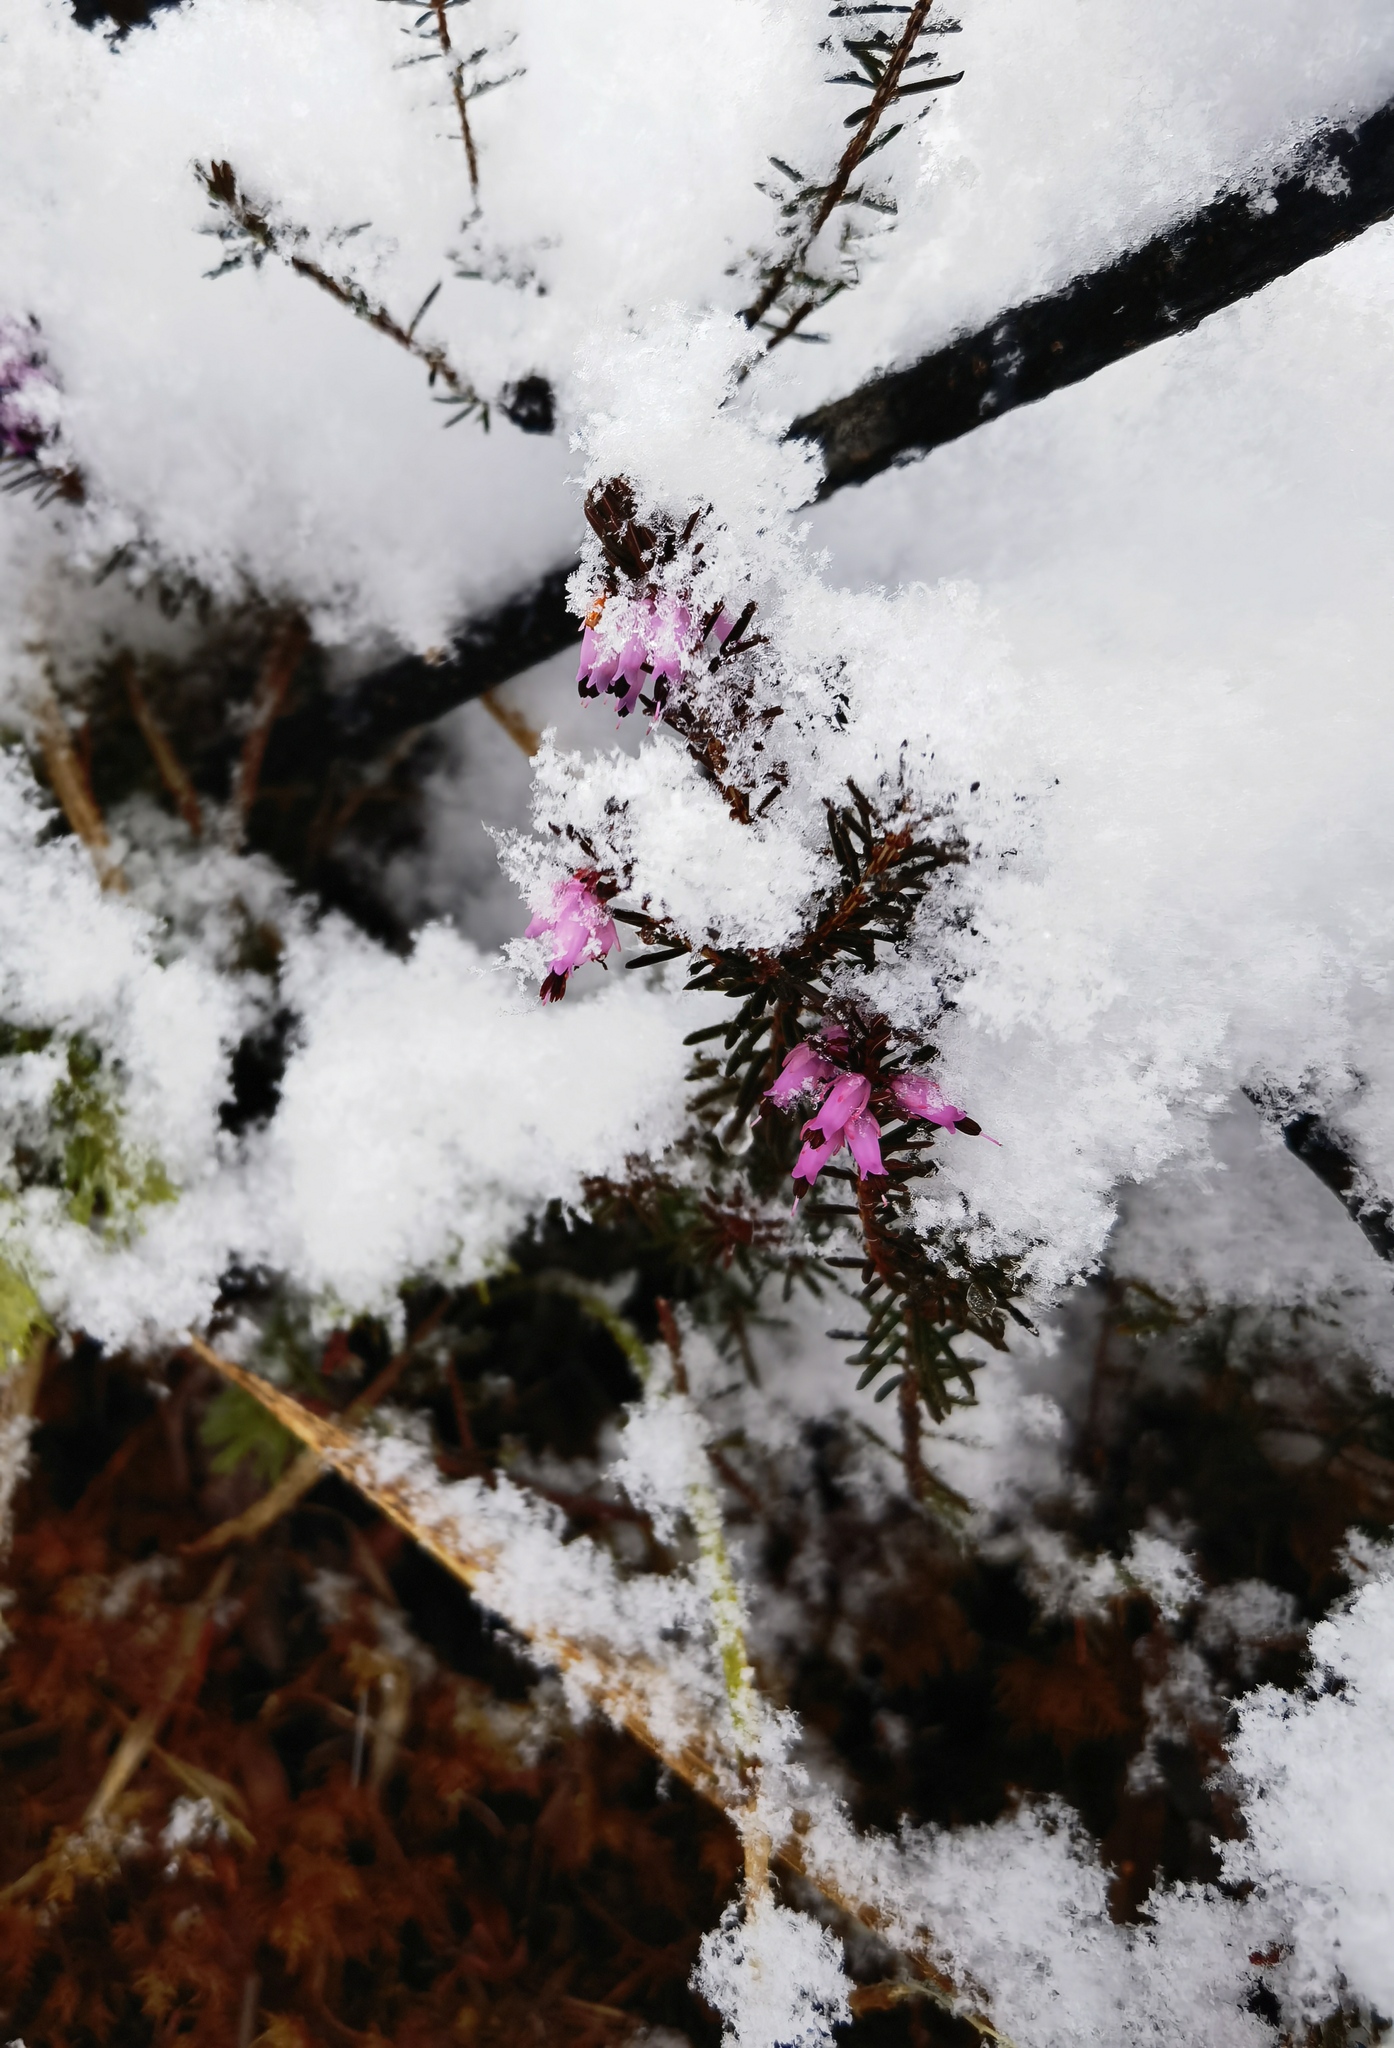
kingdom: Plantae
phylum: Tracheophyta
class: Magnoliopsida
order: Ericales
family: Ericaceae
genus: Erica
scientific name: Erica carnea
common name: Winter heath
